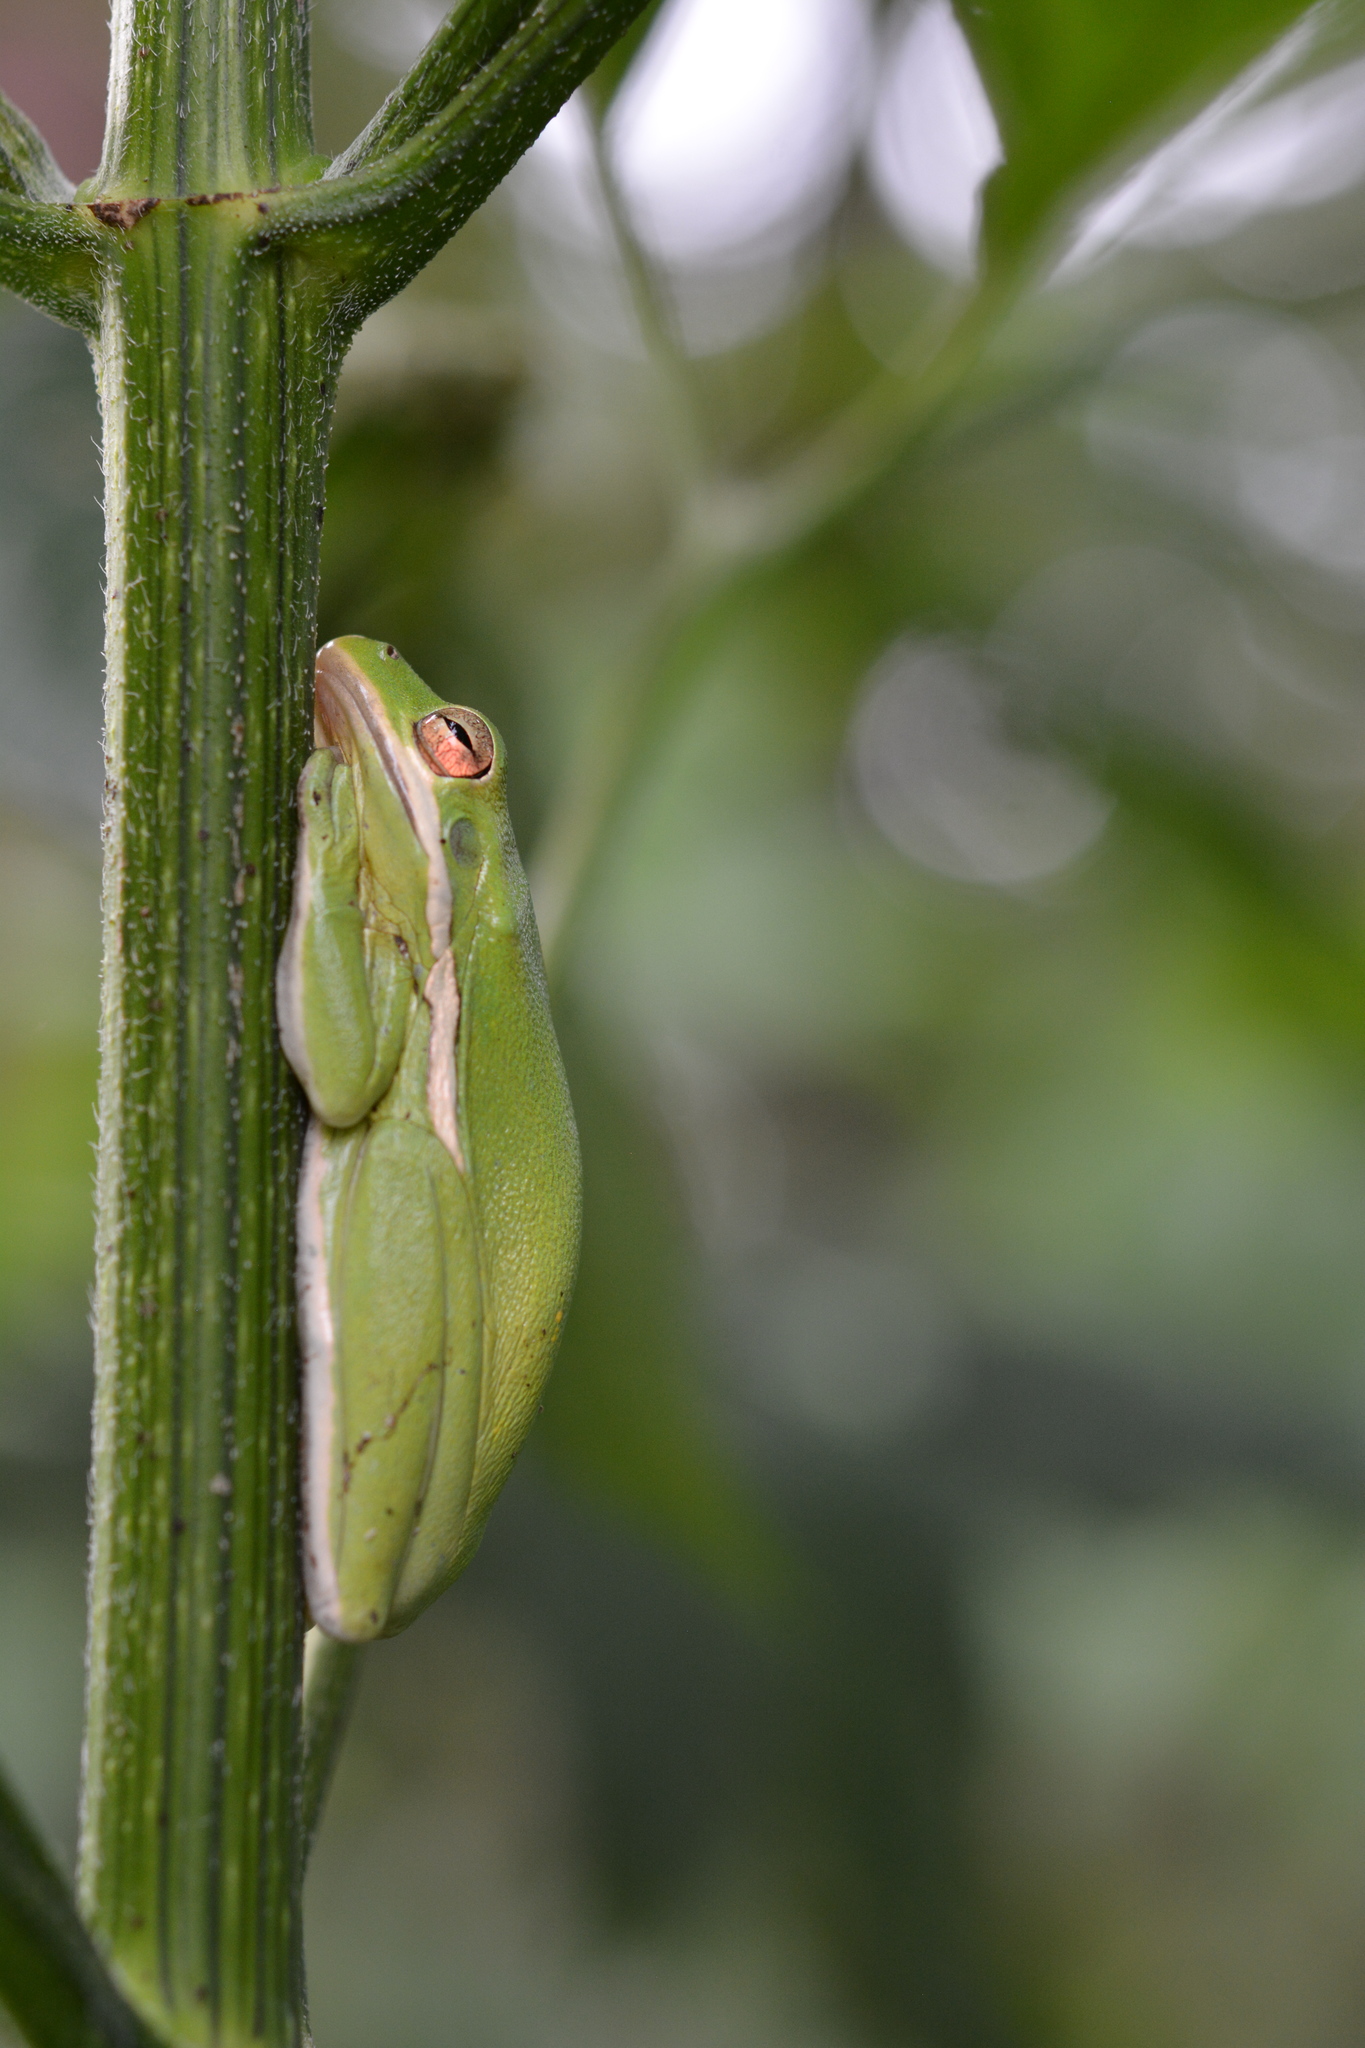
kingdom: Animalia
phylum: Chordata
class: Amphibia
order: Anura
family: Hylidae
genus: Dryophytes
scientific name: Dryophytes cinereus
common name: Green treefrog
